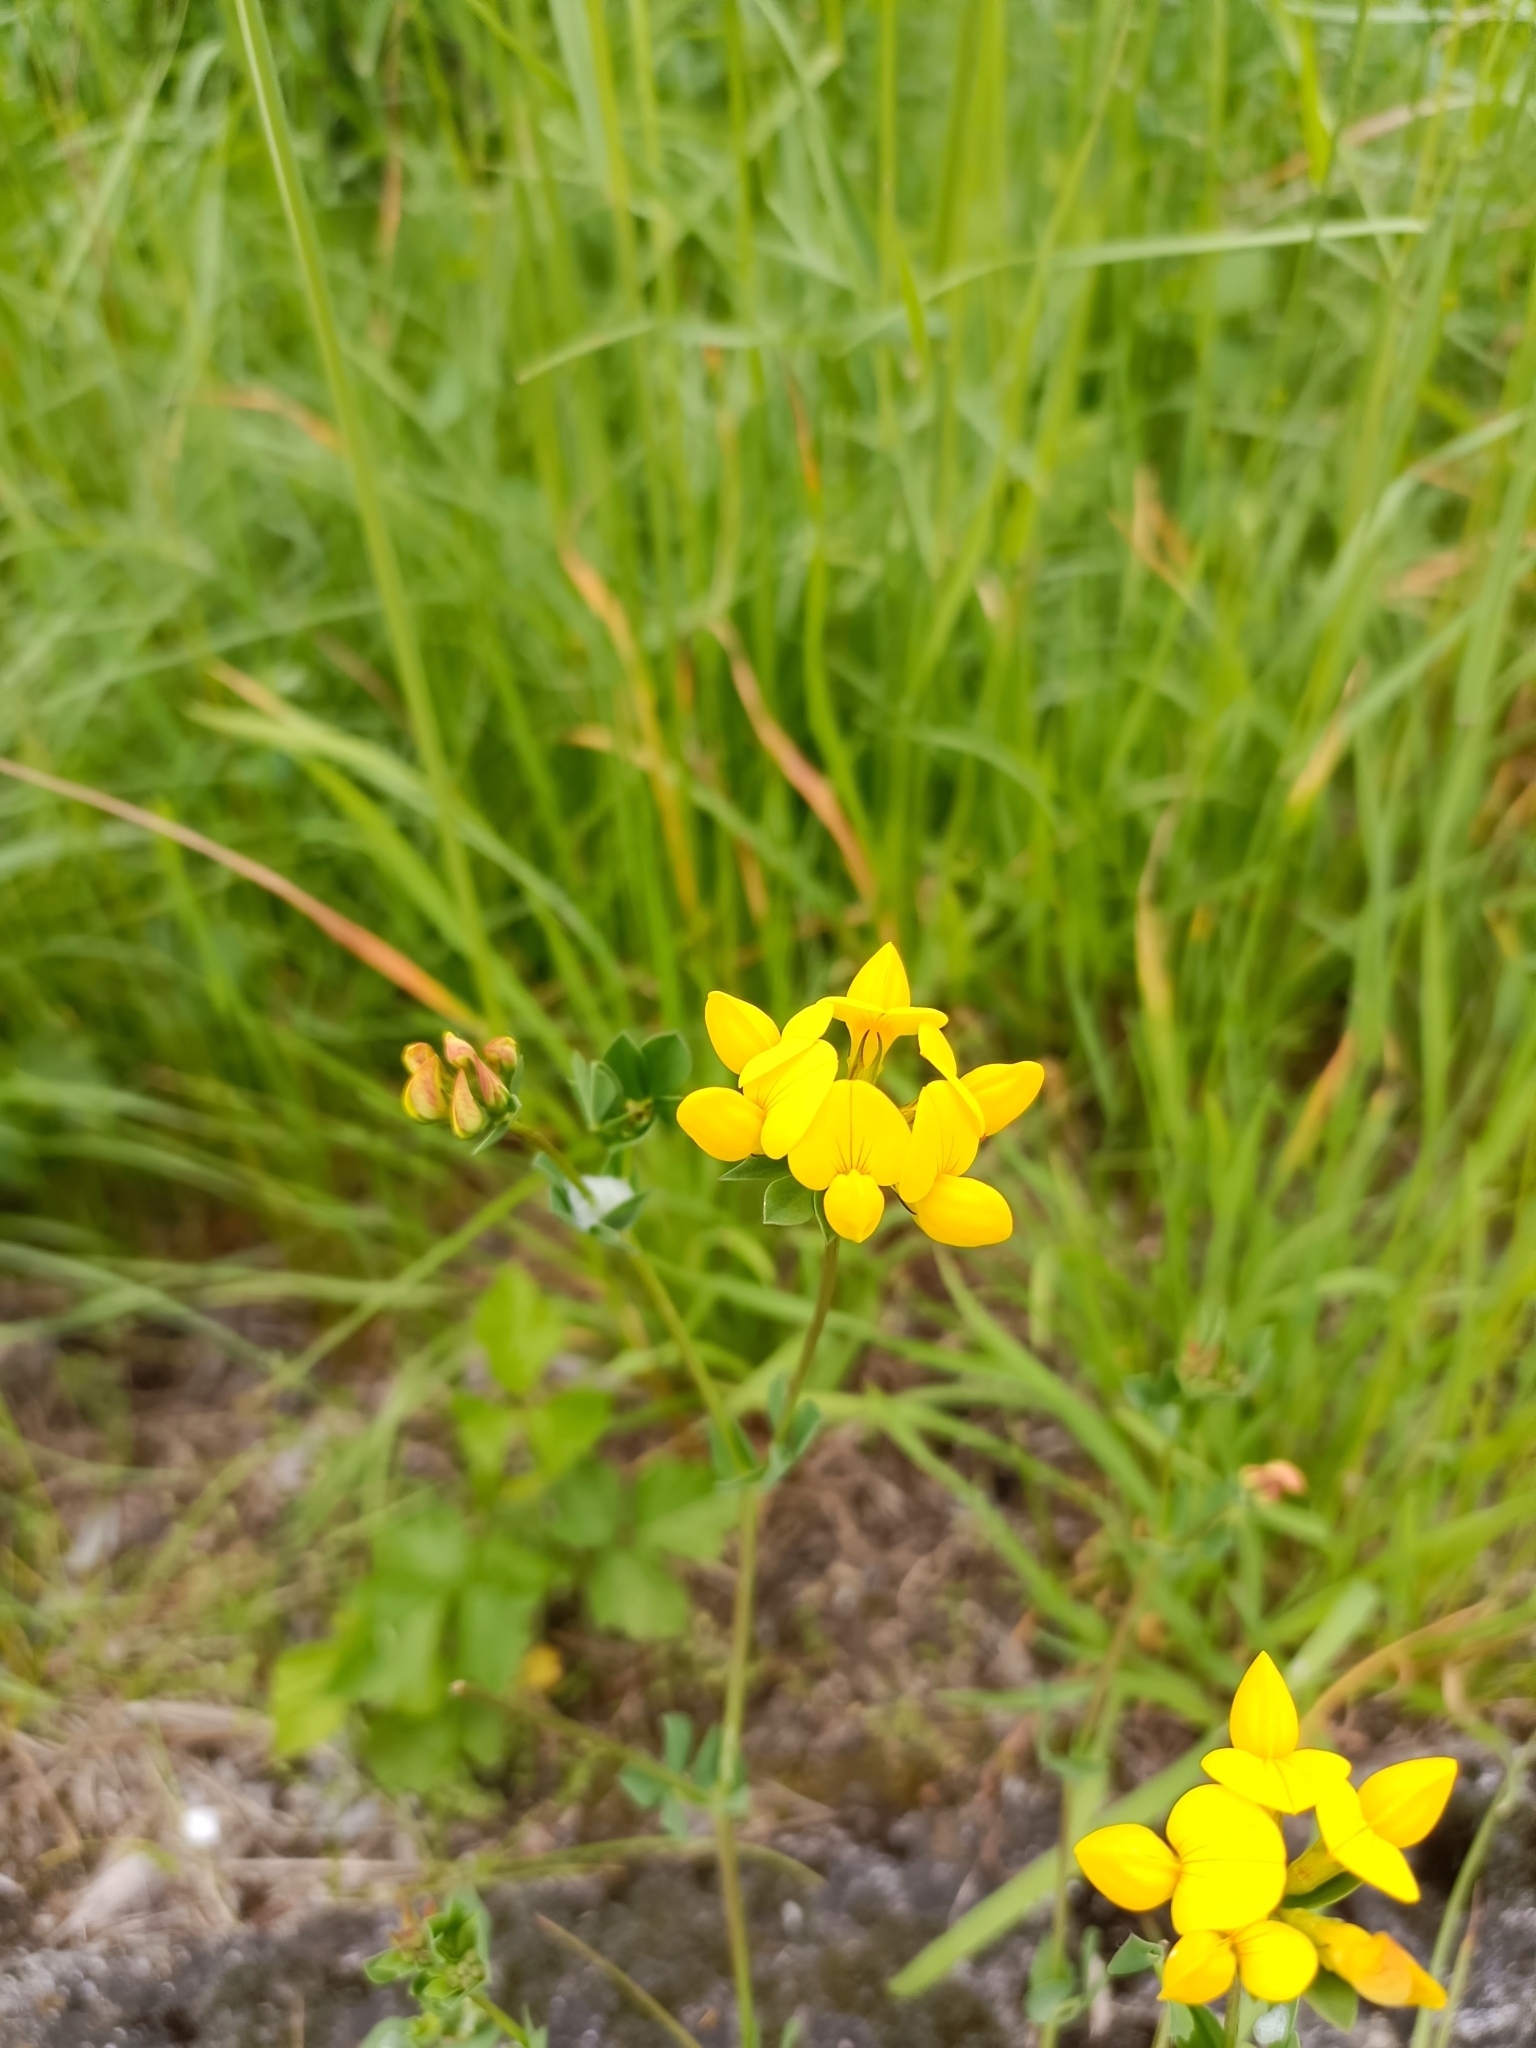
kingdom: Plantae
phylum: Tracheophyta
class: Magnoliopsida
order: Fabales
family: Fabaceae
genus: Lotus
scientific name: Lotus corniculatus
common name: Common bird's-foot-trefoil
